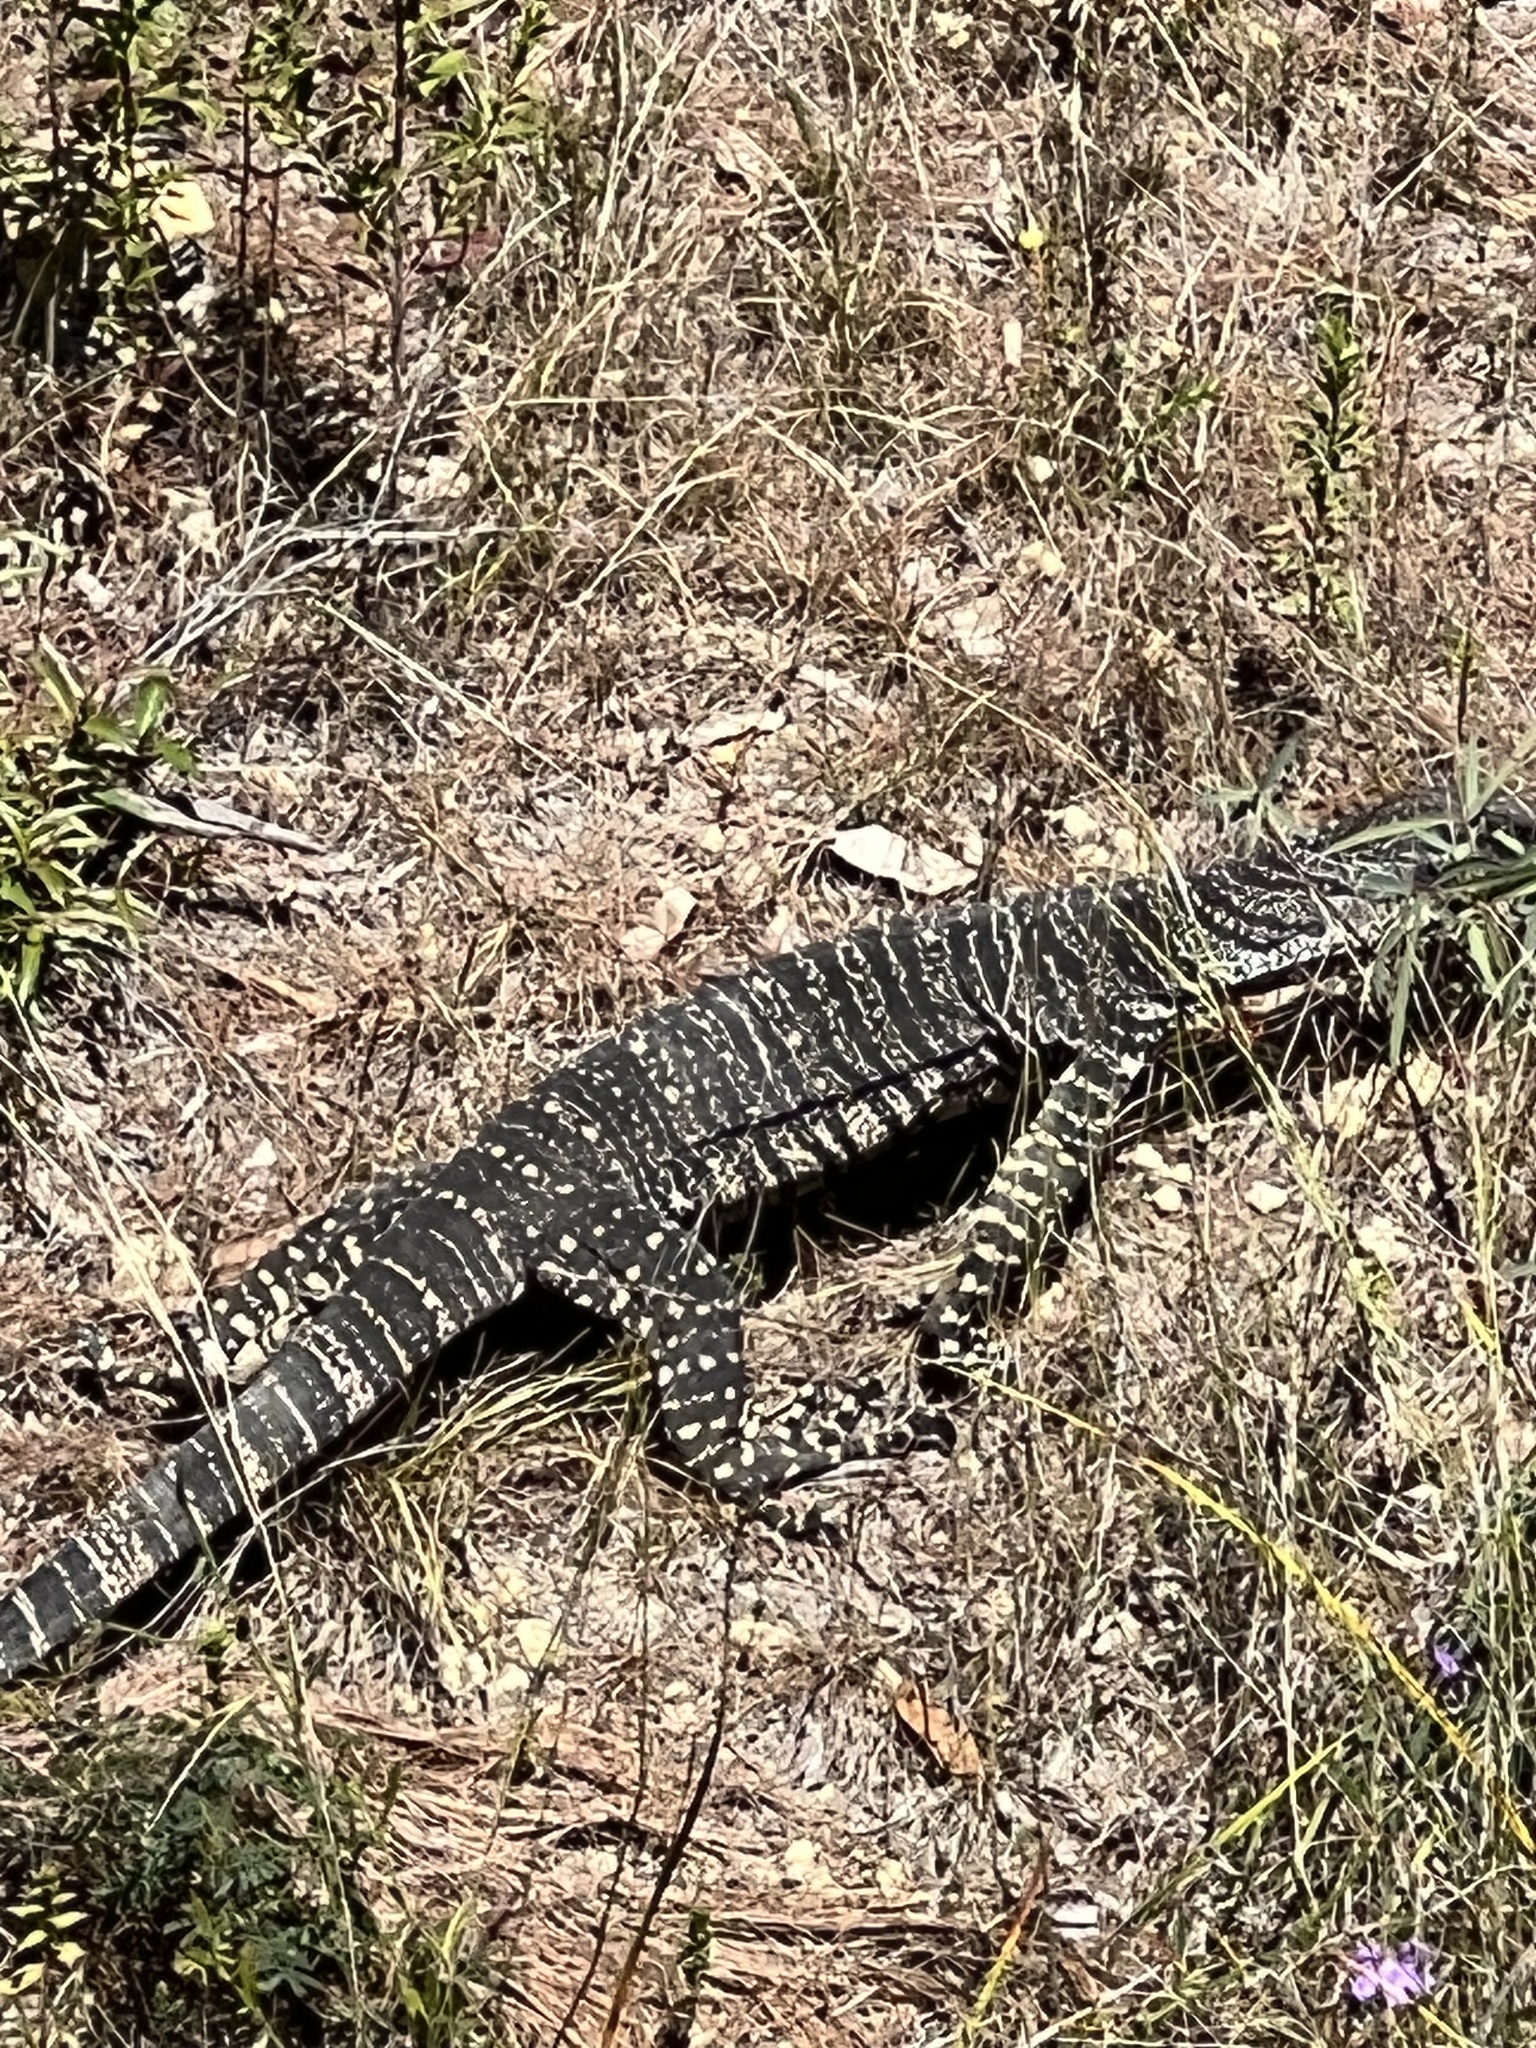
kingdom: Animalia
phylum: Chordata
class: Squamata
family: Varanidae
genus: Varanus
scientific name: Varanus varius
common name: Lace monitor
